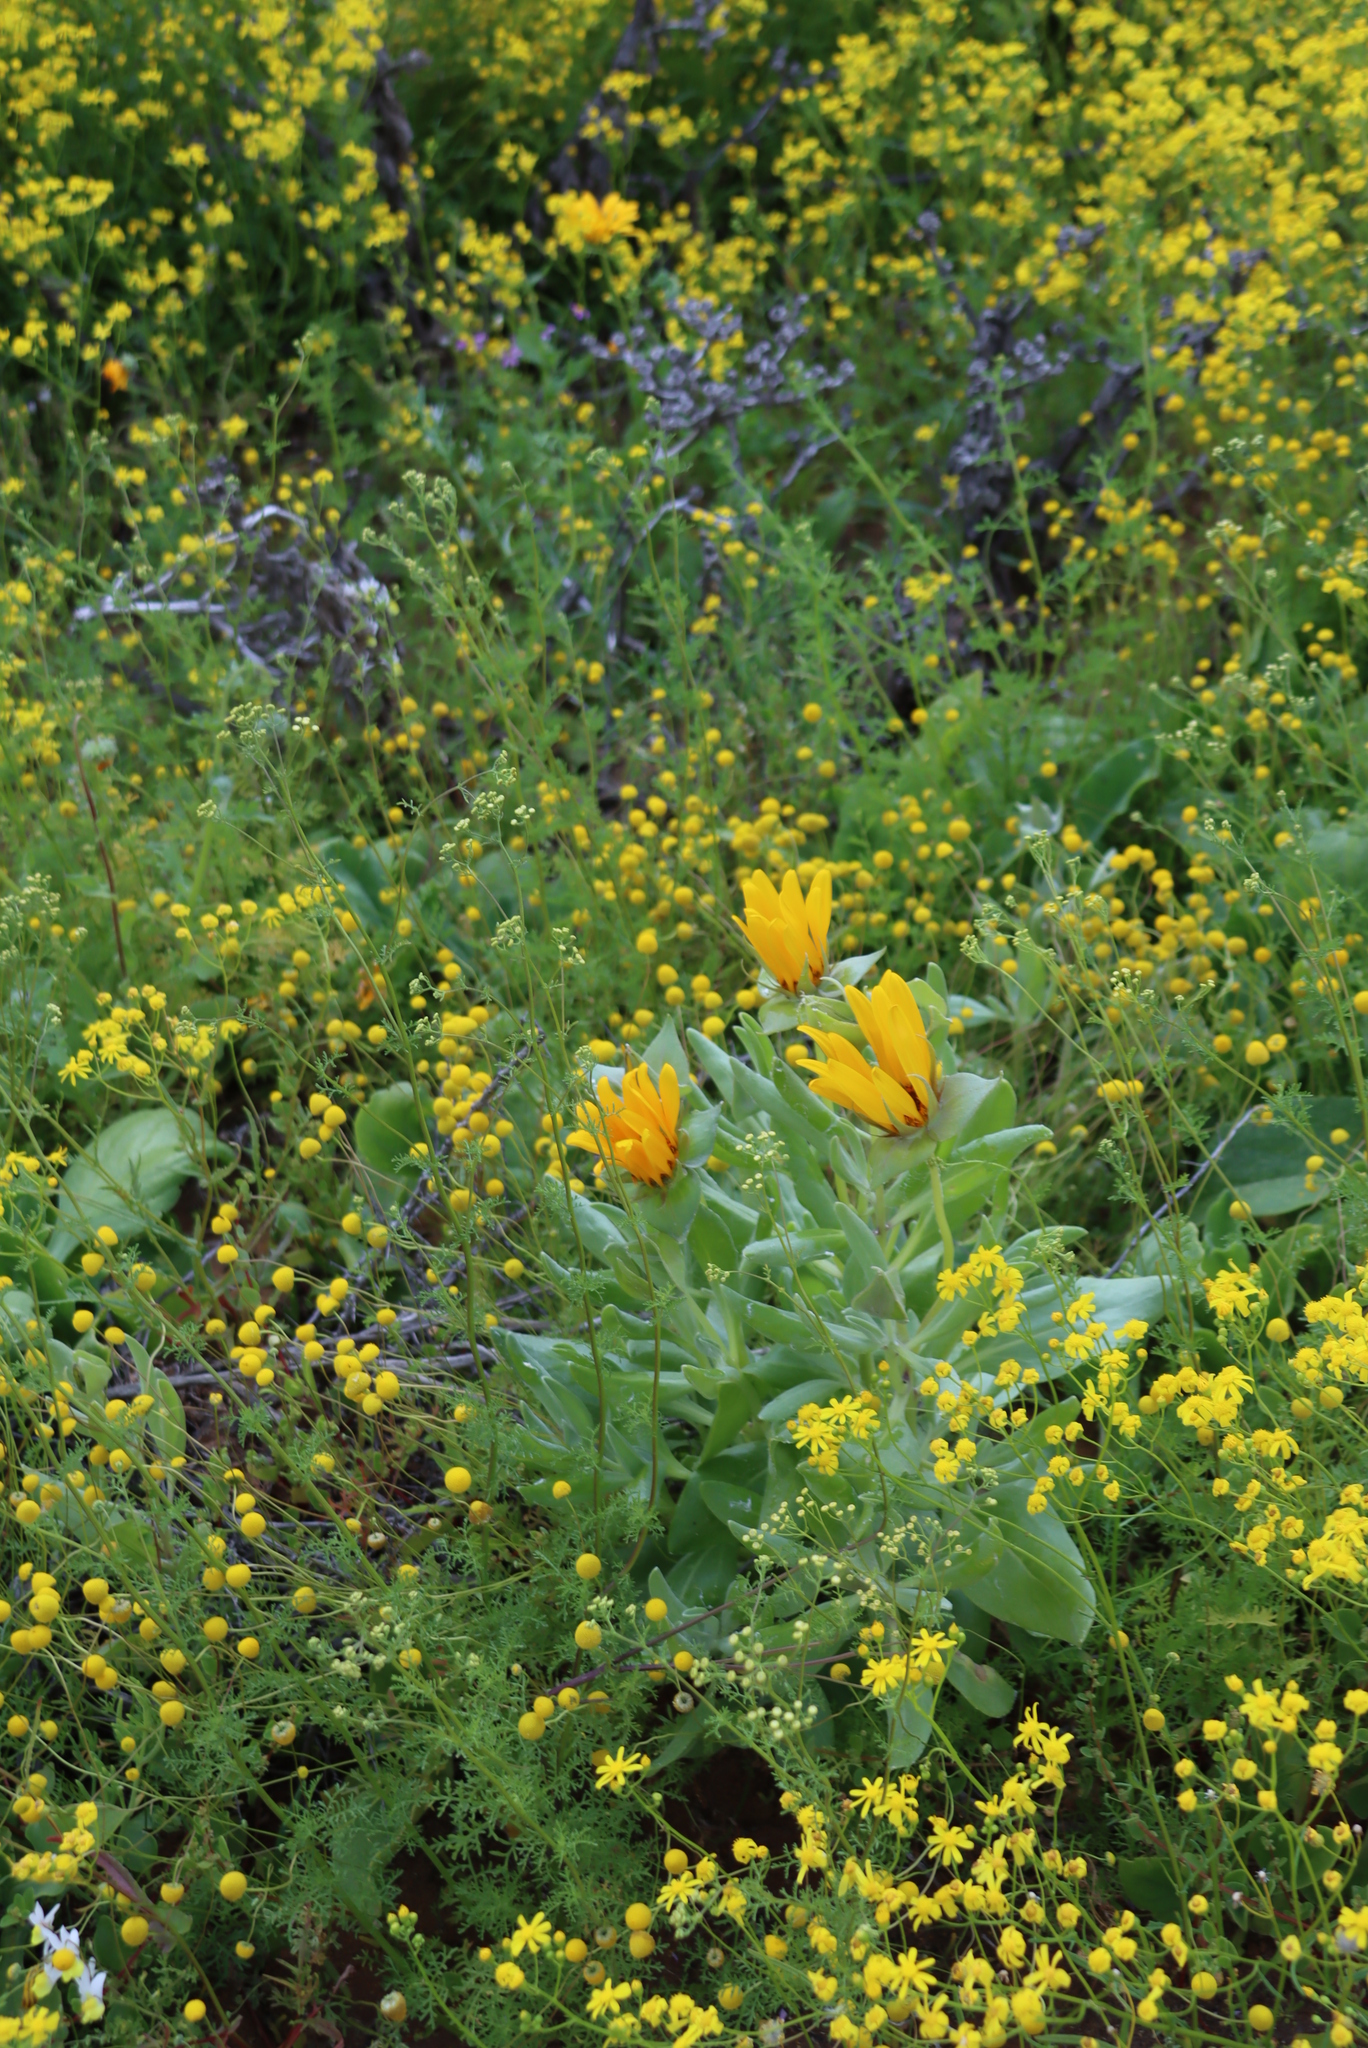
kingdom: Plantae
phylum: Tracheophyta
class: Magnoliopsida
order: Asterales
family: Asteraceae
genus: Didelta
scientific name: Didelta carnosa
